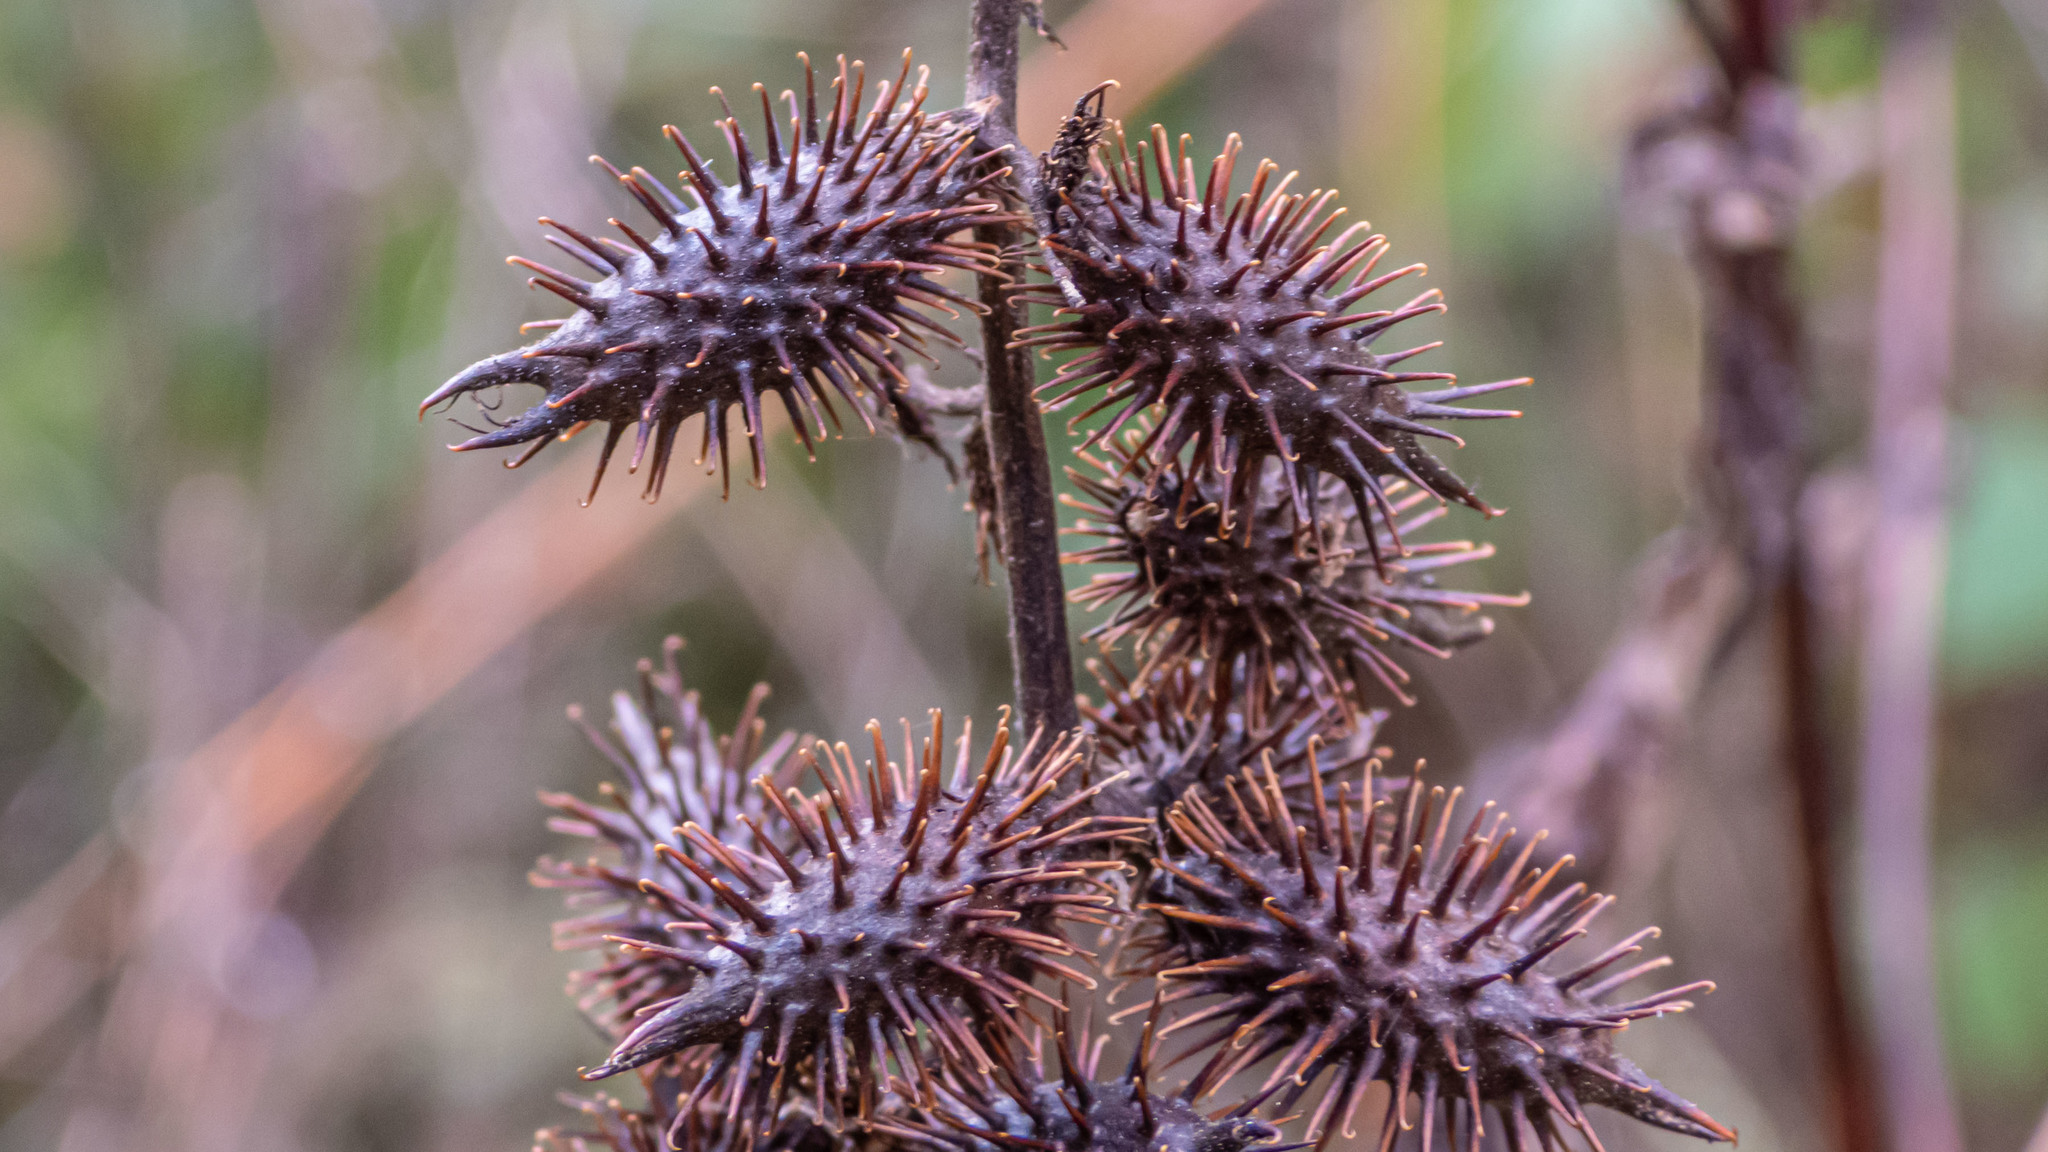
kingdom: Plantae
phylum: Tracheophyta
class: Magnoliopsida
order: Asterales
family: Asteraceae
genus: Xanthium
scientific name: Xanthium strumarium
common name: Rough cocklebur
